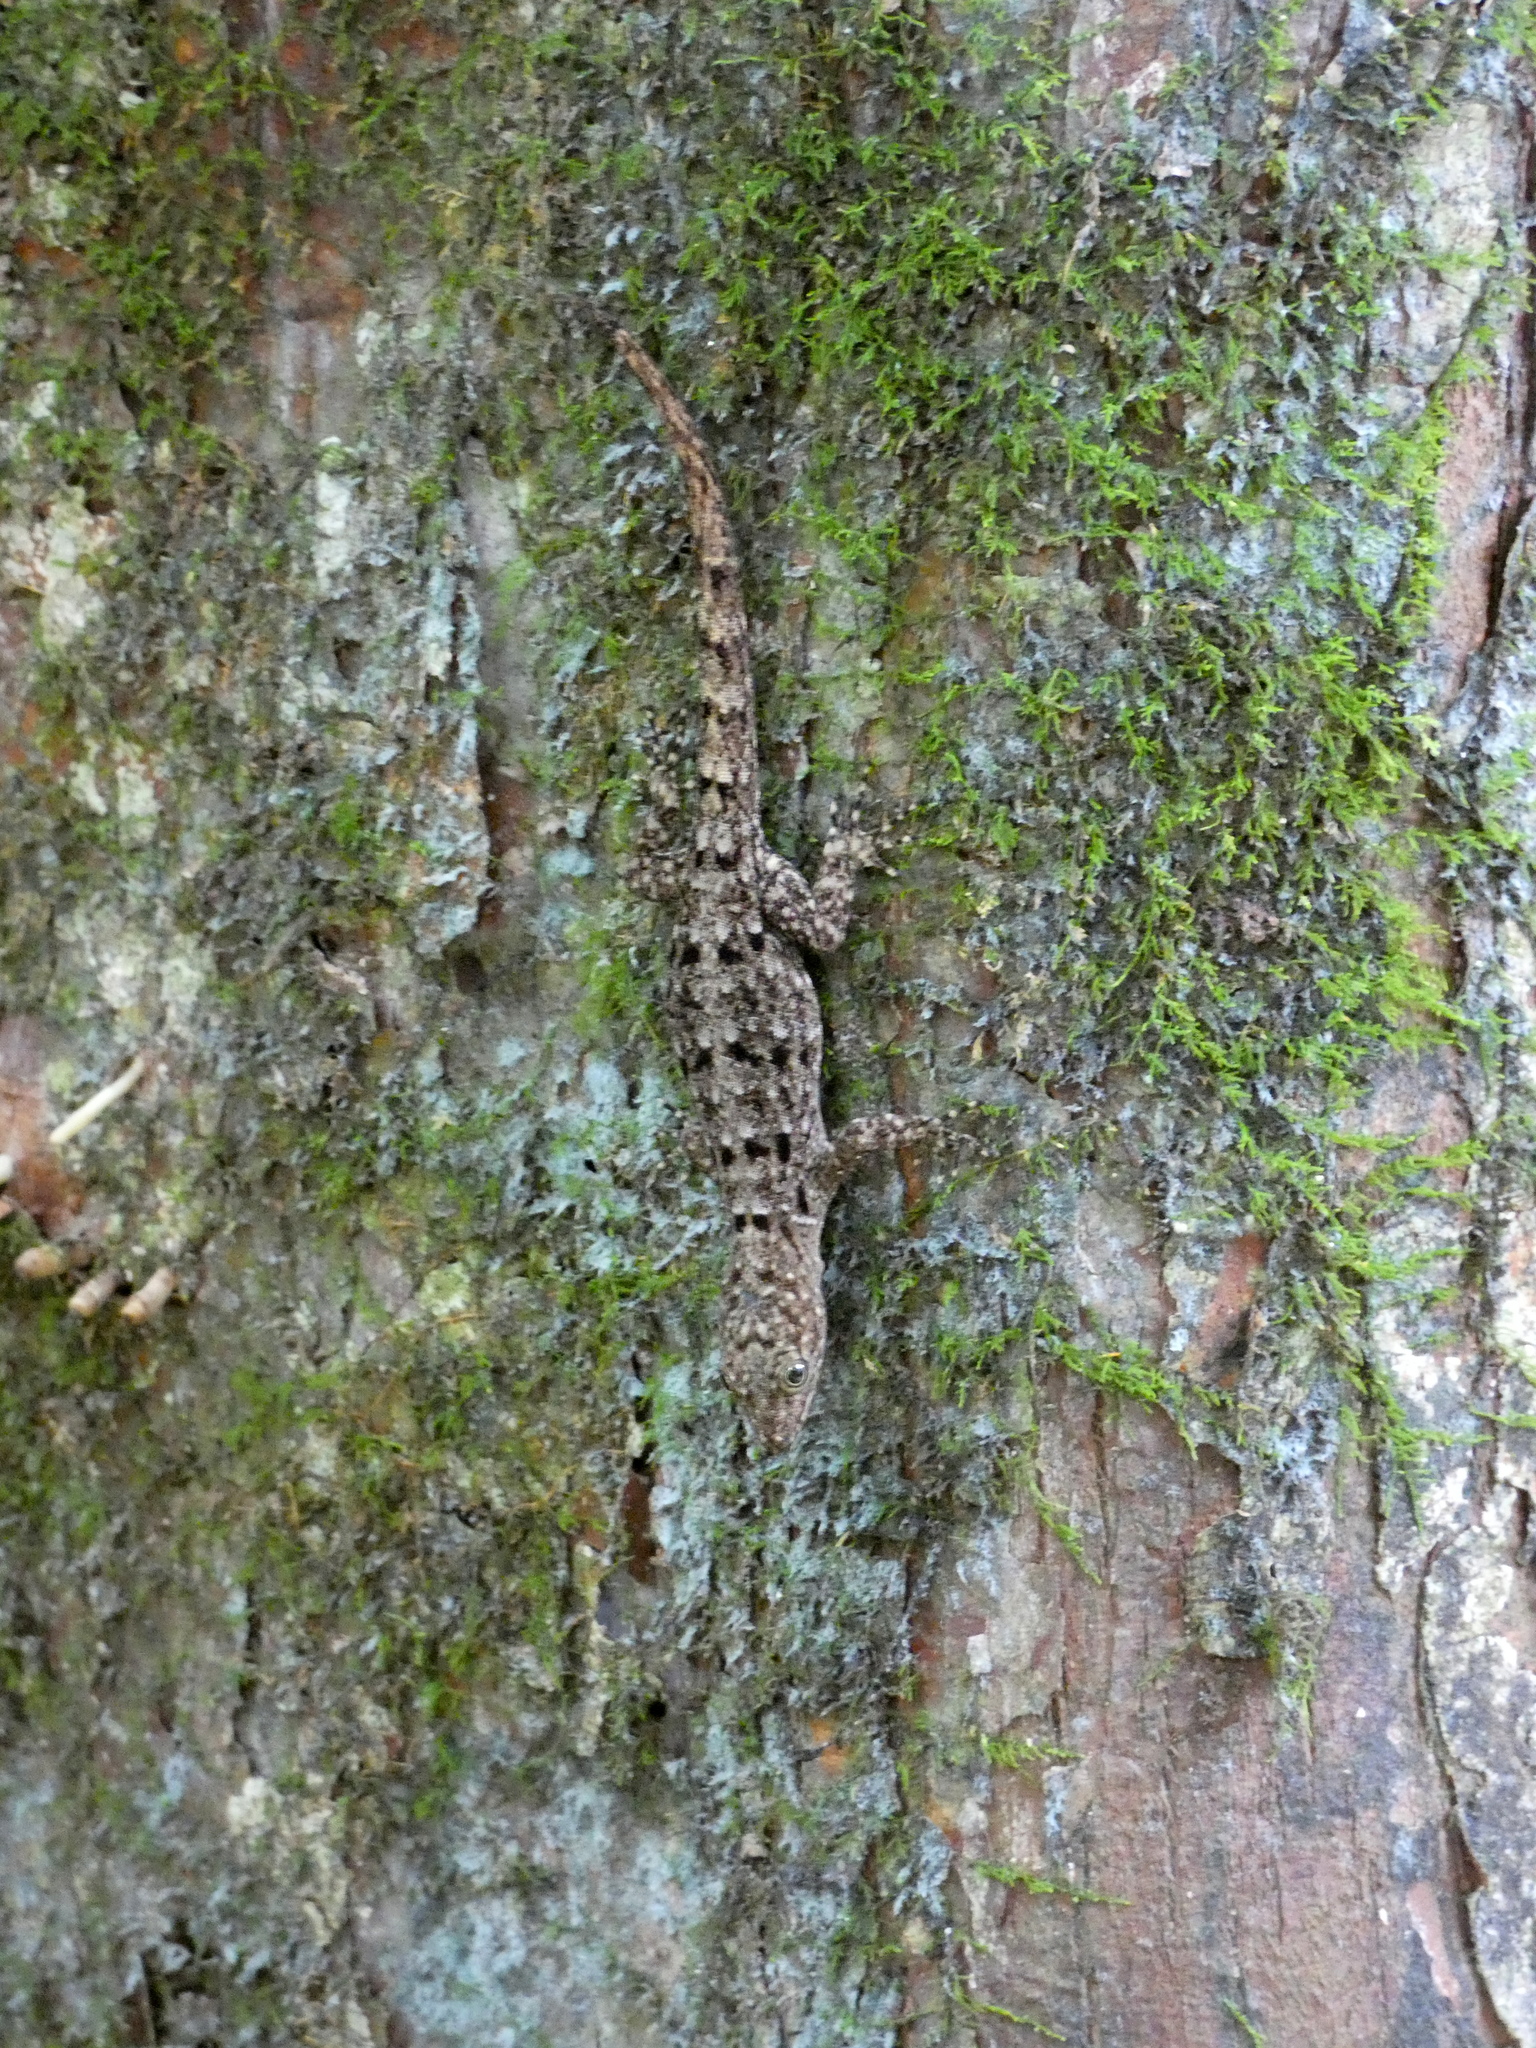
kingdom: Animalia
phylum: Chordata
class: Squamata
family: Sphaerodactylidae
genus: Gonatodes
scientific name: Gonatodes albogularis
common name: Yellow-headed gecko
